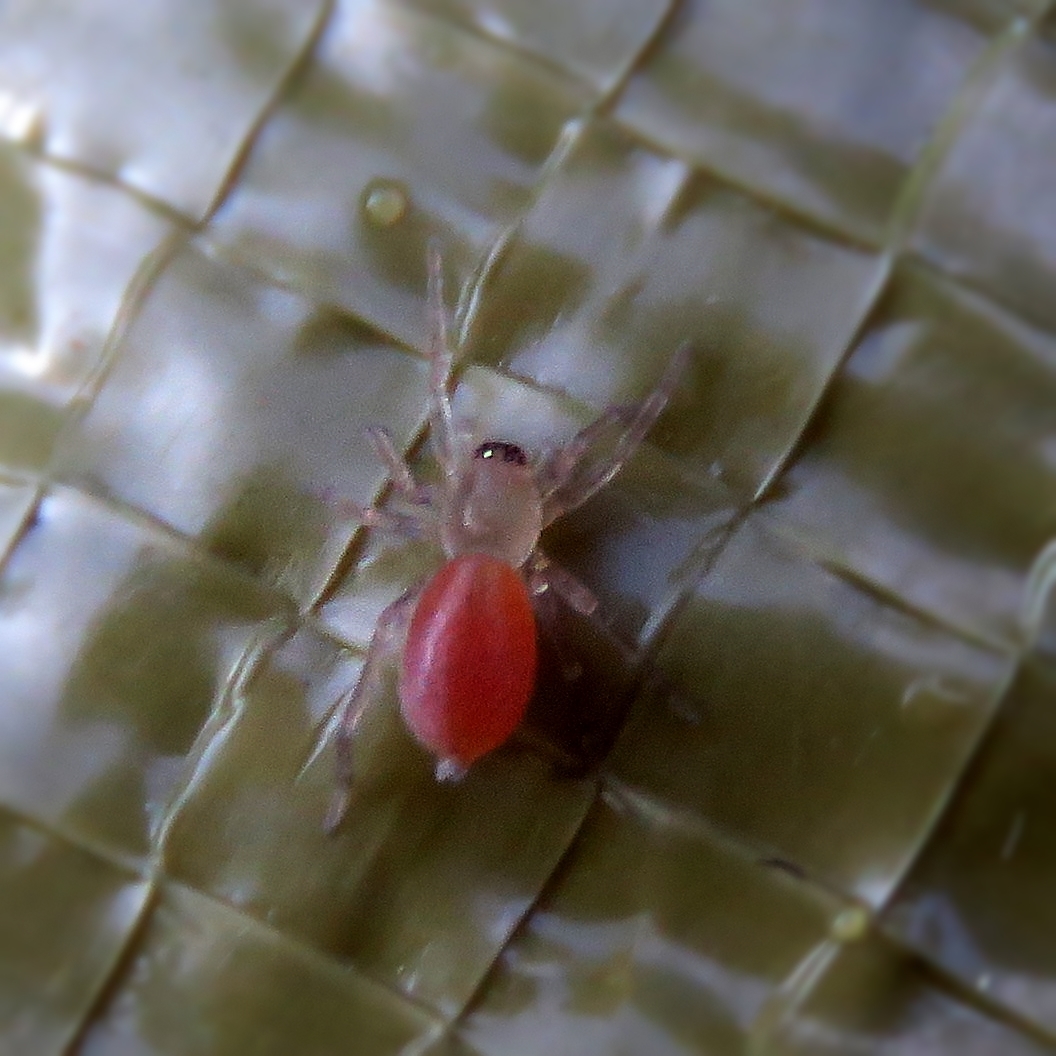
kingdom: Animalia
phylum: Arthropoda
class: Arachnida
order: Araneae
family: Clubionidae
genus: Clubiona
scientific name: Clubiona
